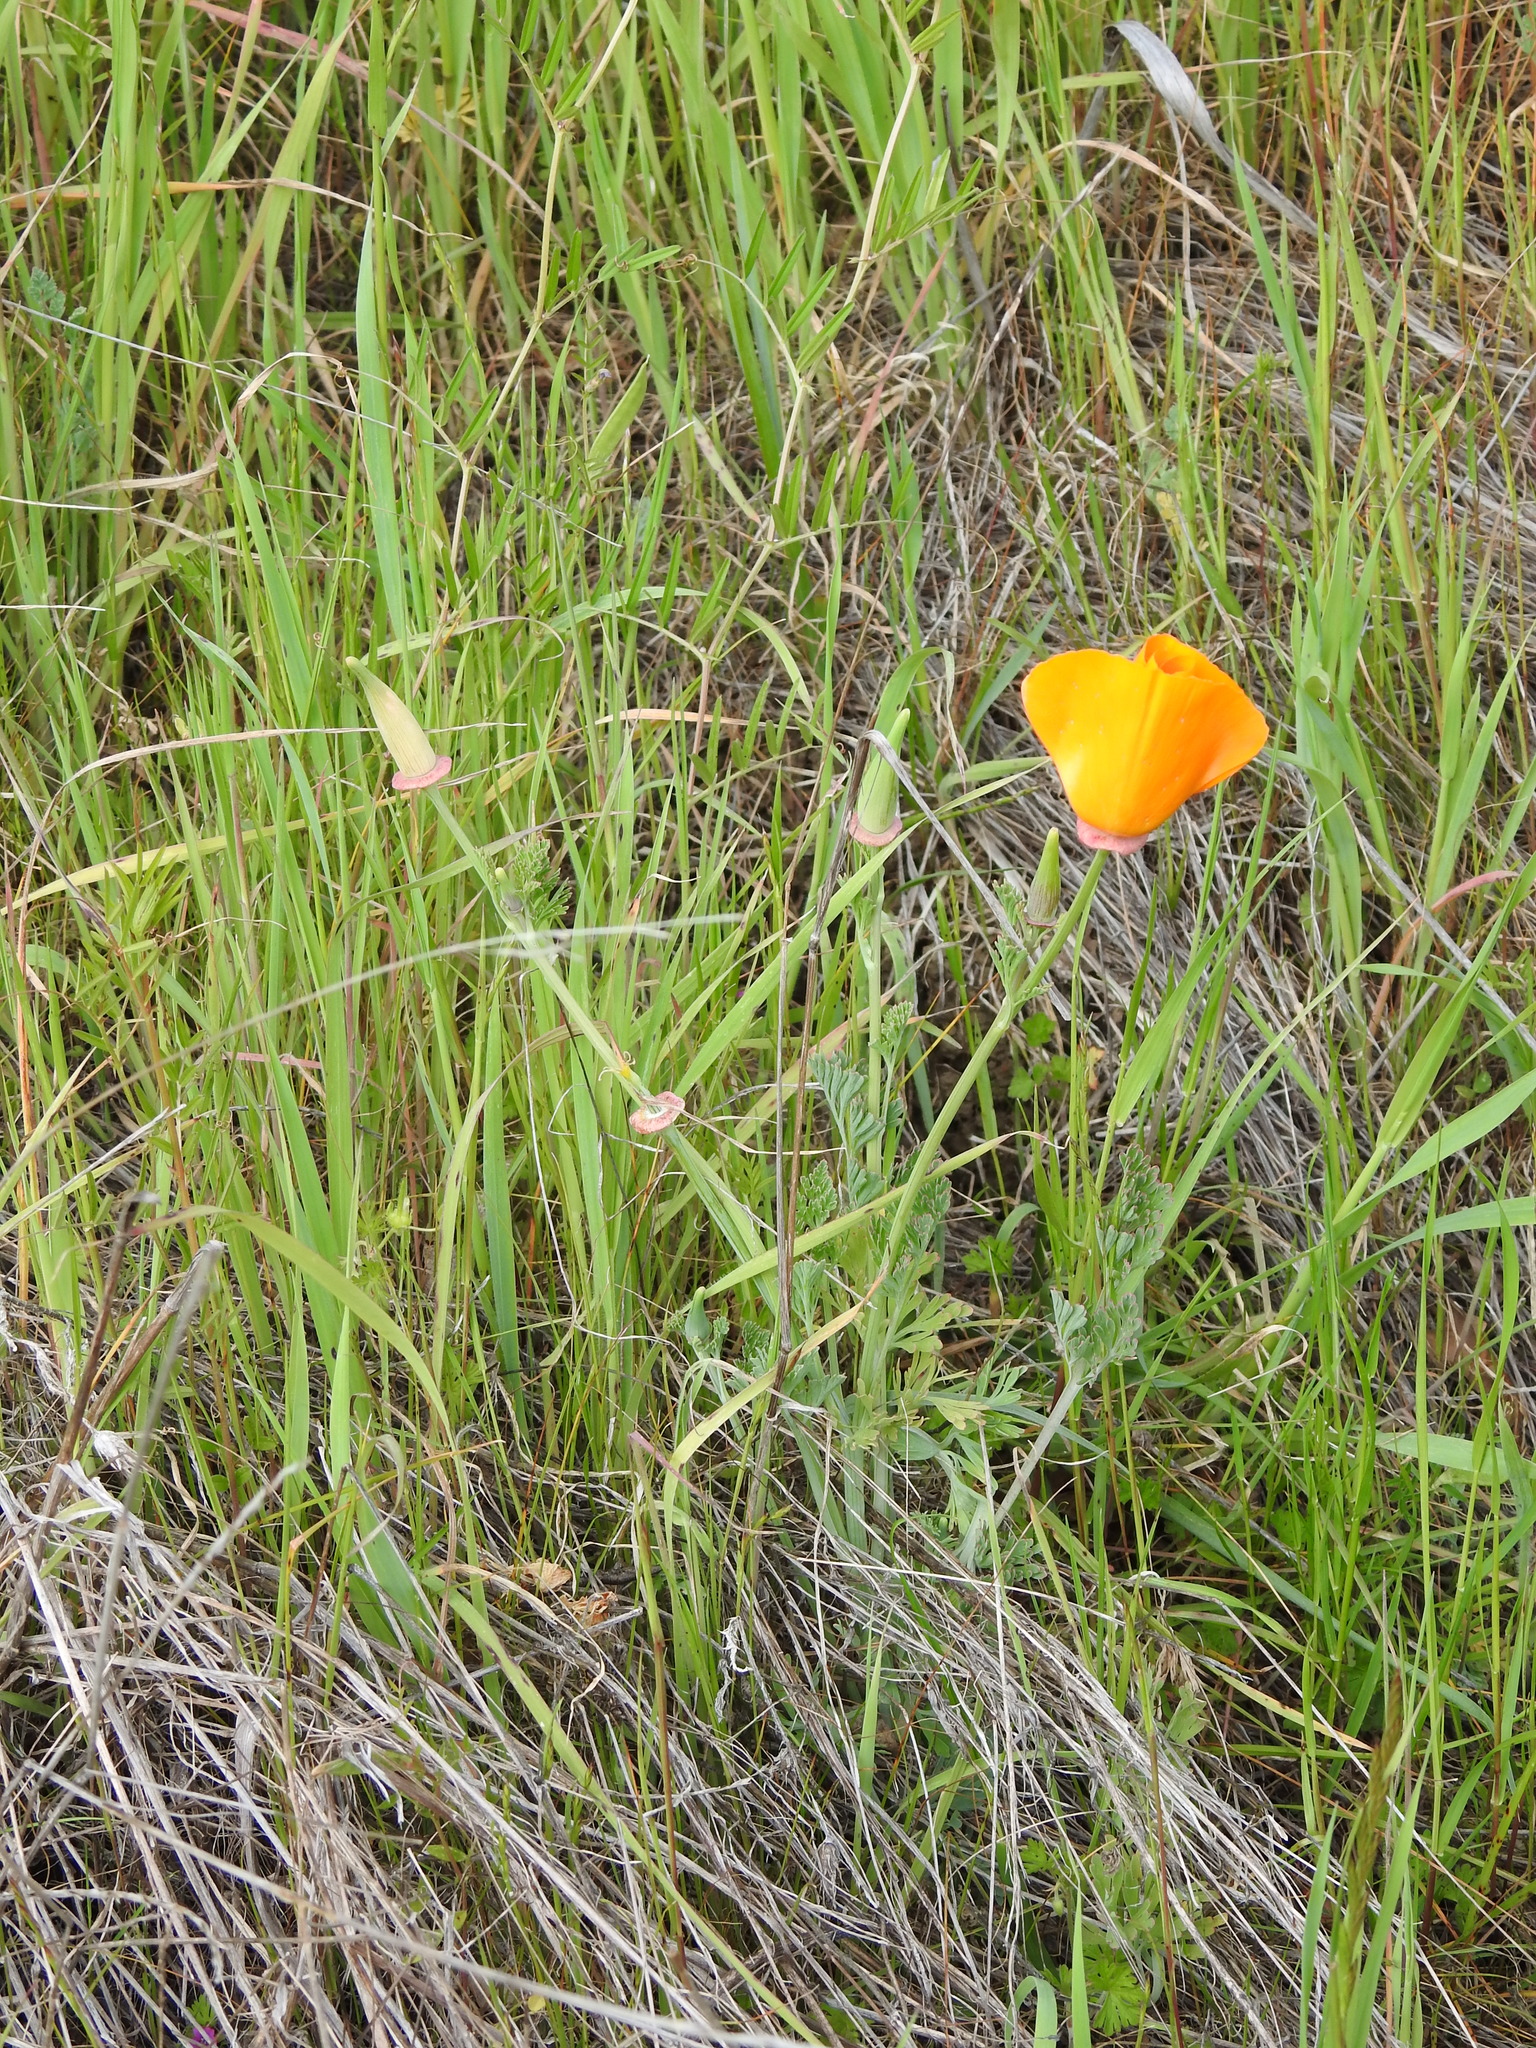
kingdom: Plantae
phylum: Tracheophyta
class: Magnoliopsida
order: Ranunculales
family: Papaveraceae
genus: Eschscholzia
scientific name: Eschscholzia californica
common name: California poppy
